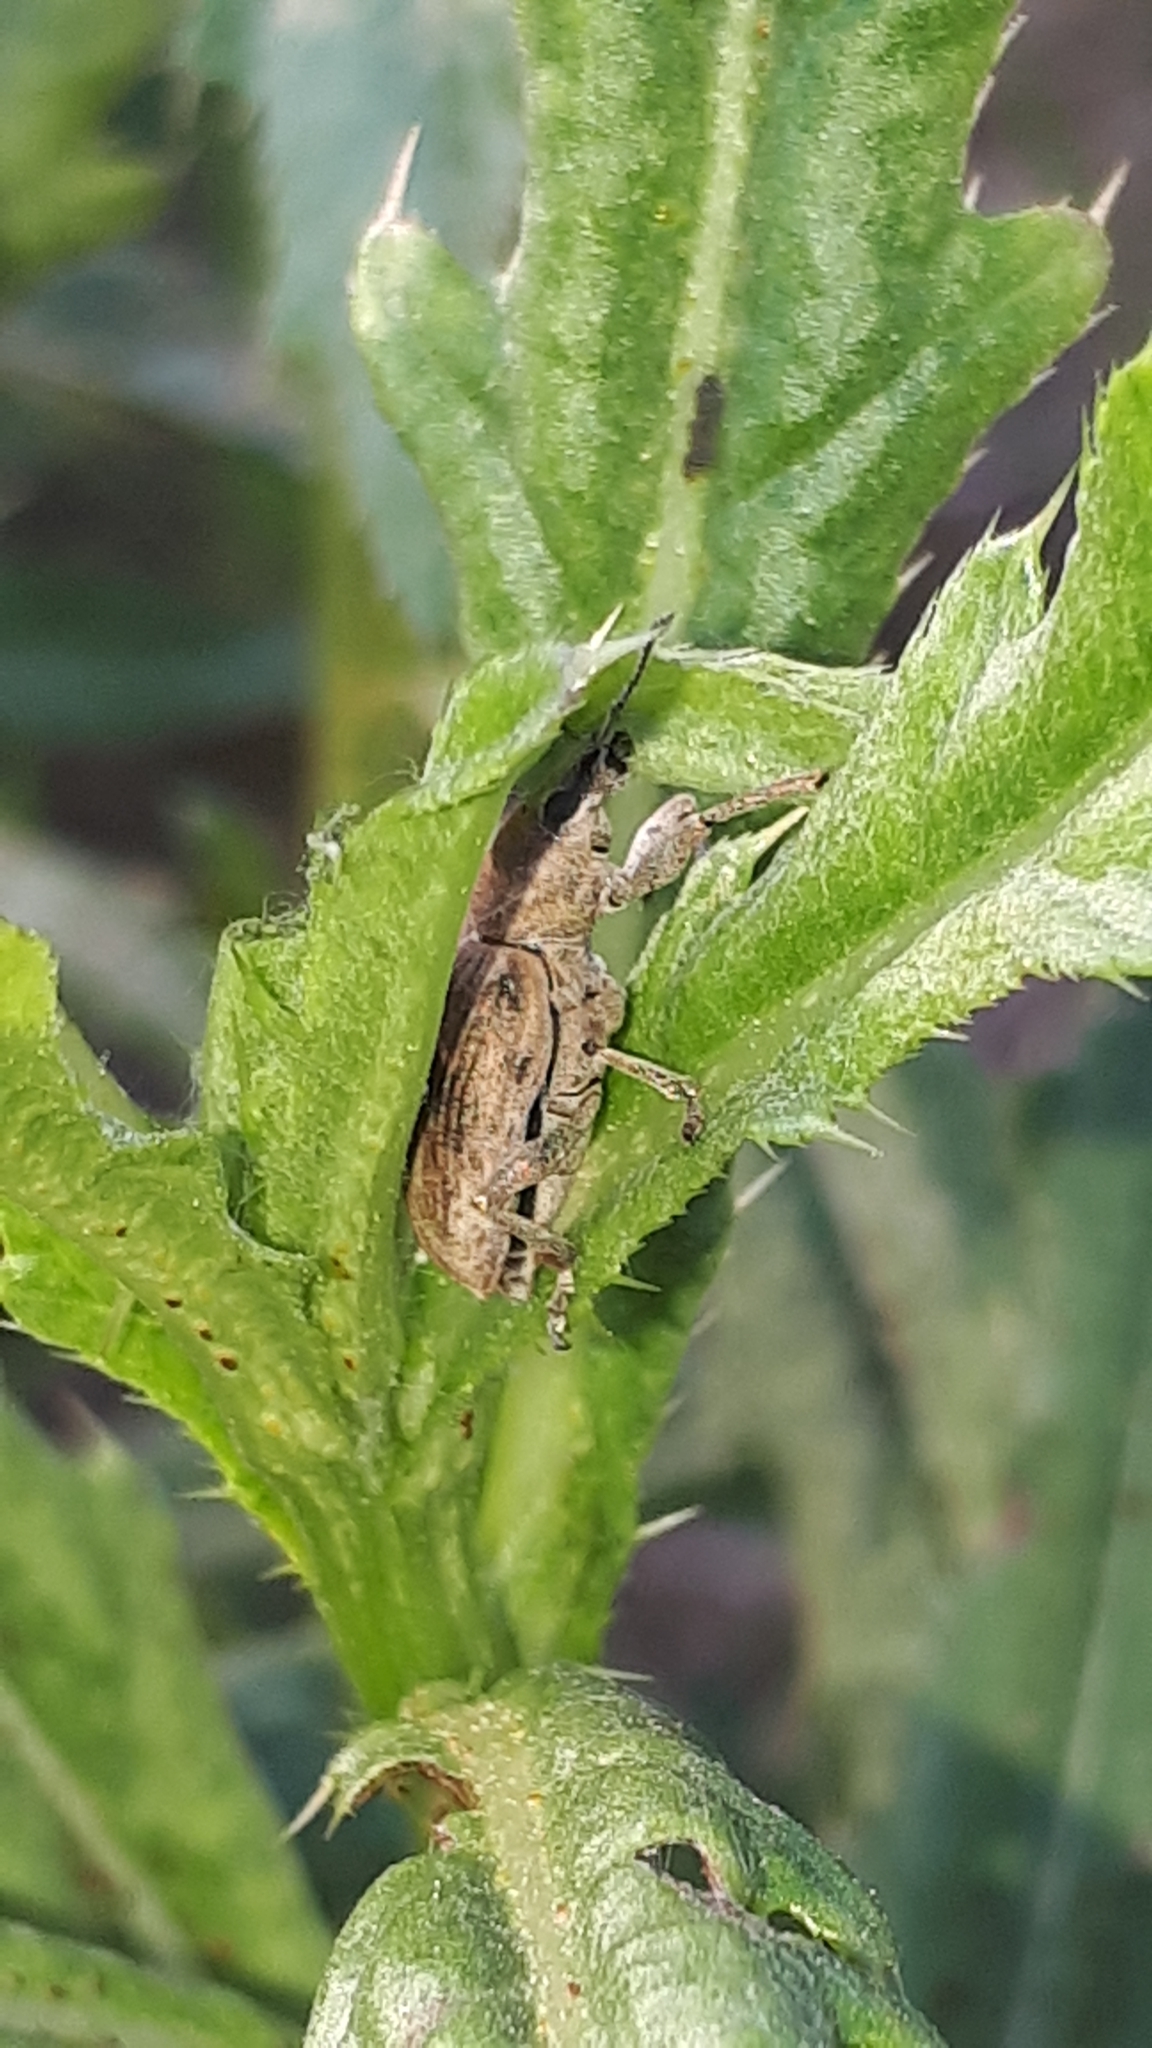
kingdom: Animalia
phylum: Arthropoda
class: Insecta
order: Coleoptera
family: Curculionidae
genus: Tanymecus
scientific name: Tanymecus palliatus
